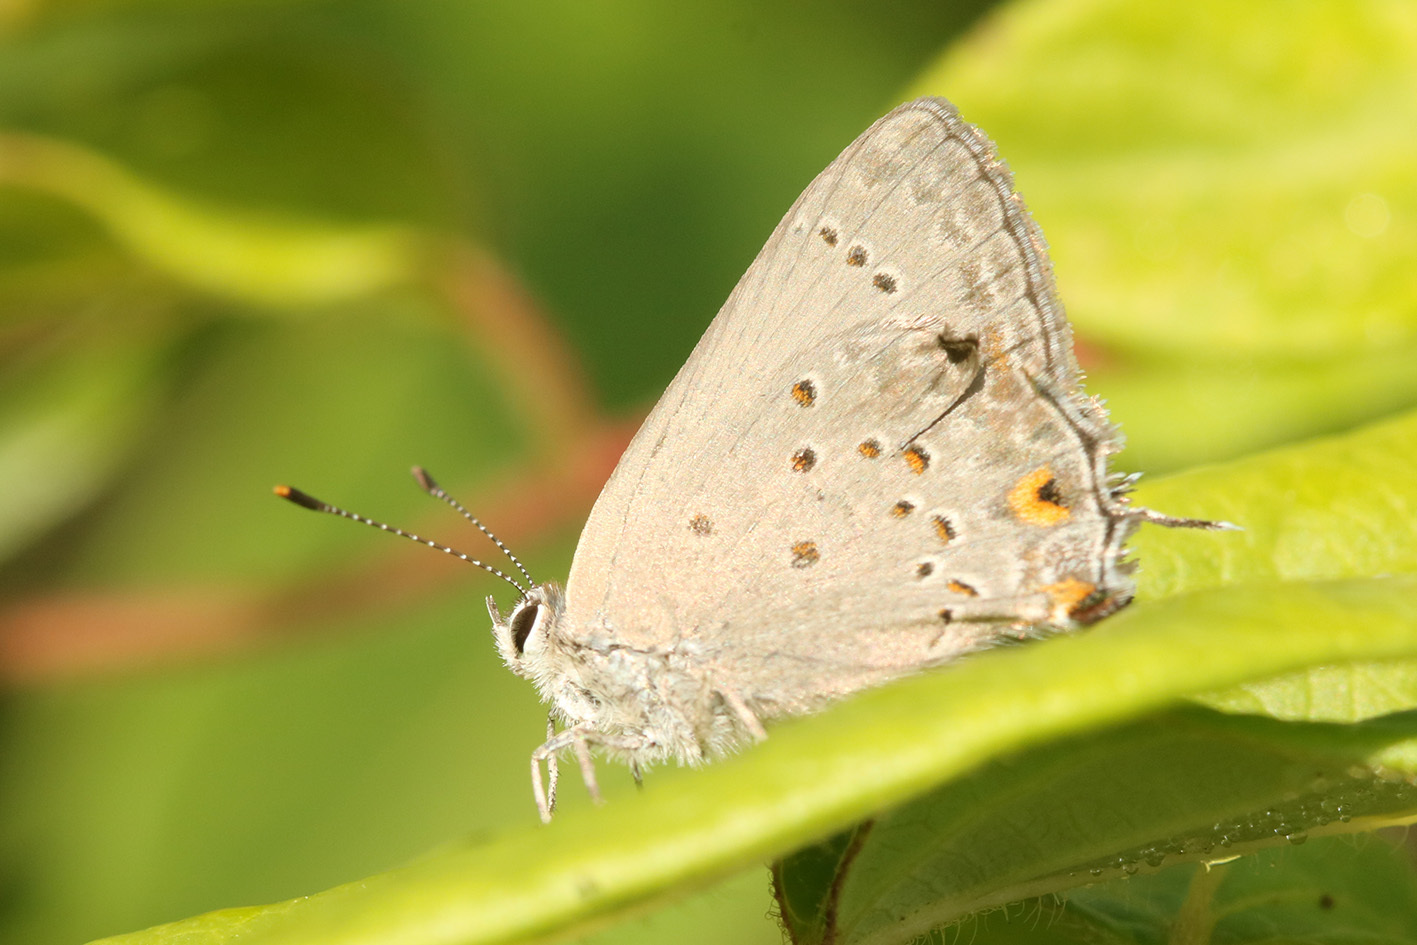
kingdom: Animalia
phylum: Arthropoda
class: Insecta
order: Lepidoptera
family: Lycaenidae
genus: Strymon
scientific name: Strymon eurytulus
